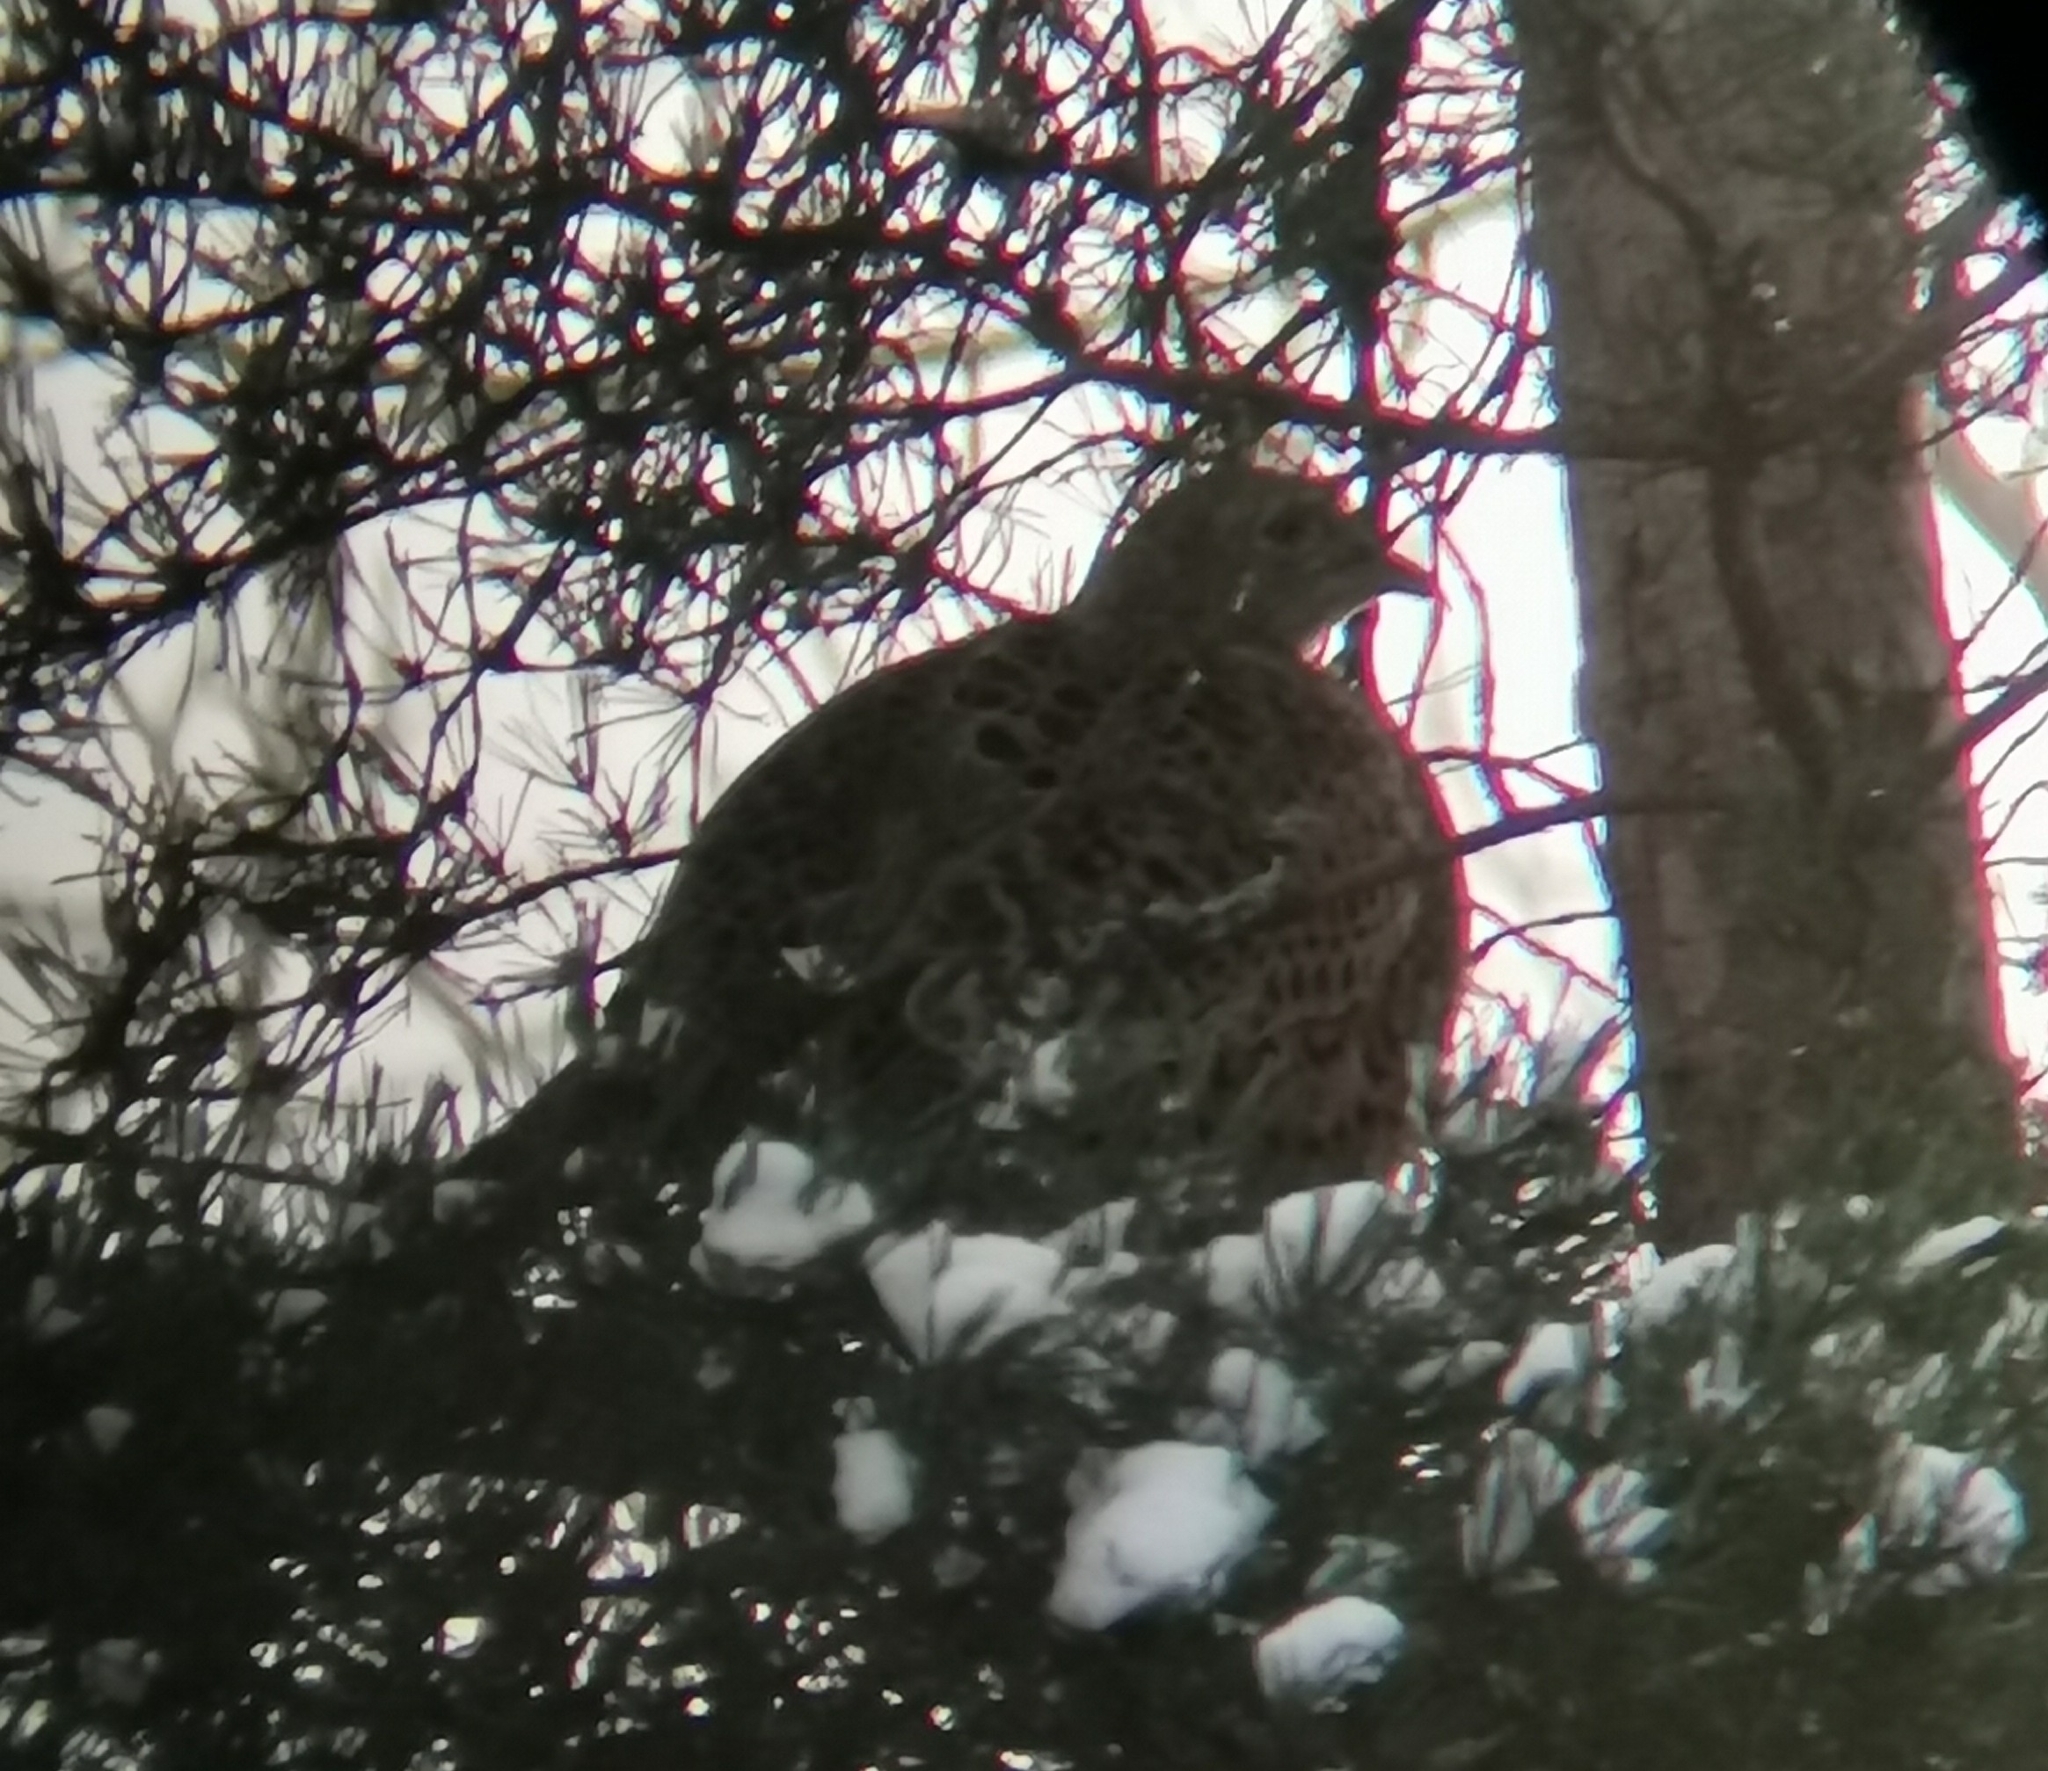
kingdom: Animalia
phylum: Chordata
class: Aves
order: Galliformes
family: Phasianidae
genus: Phasianus
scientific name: Phasianus colchicus
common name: Common pheasant
